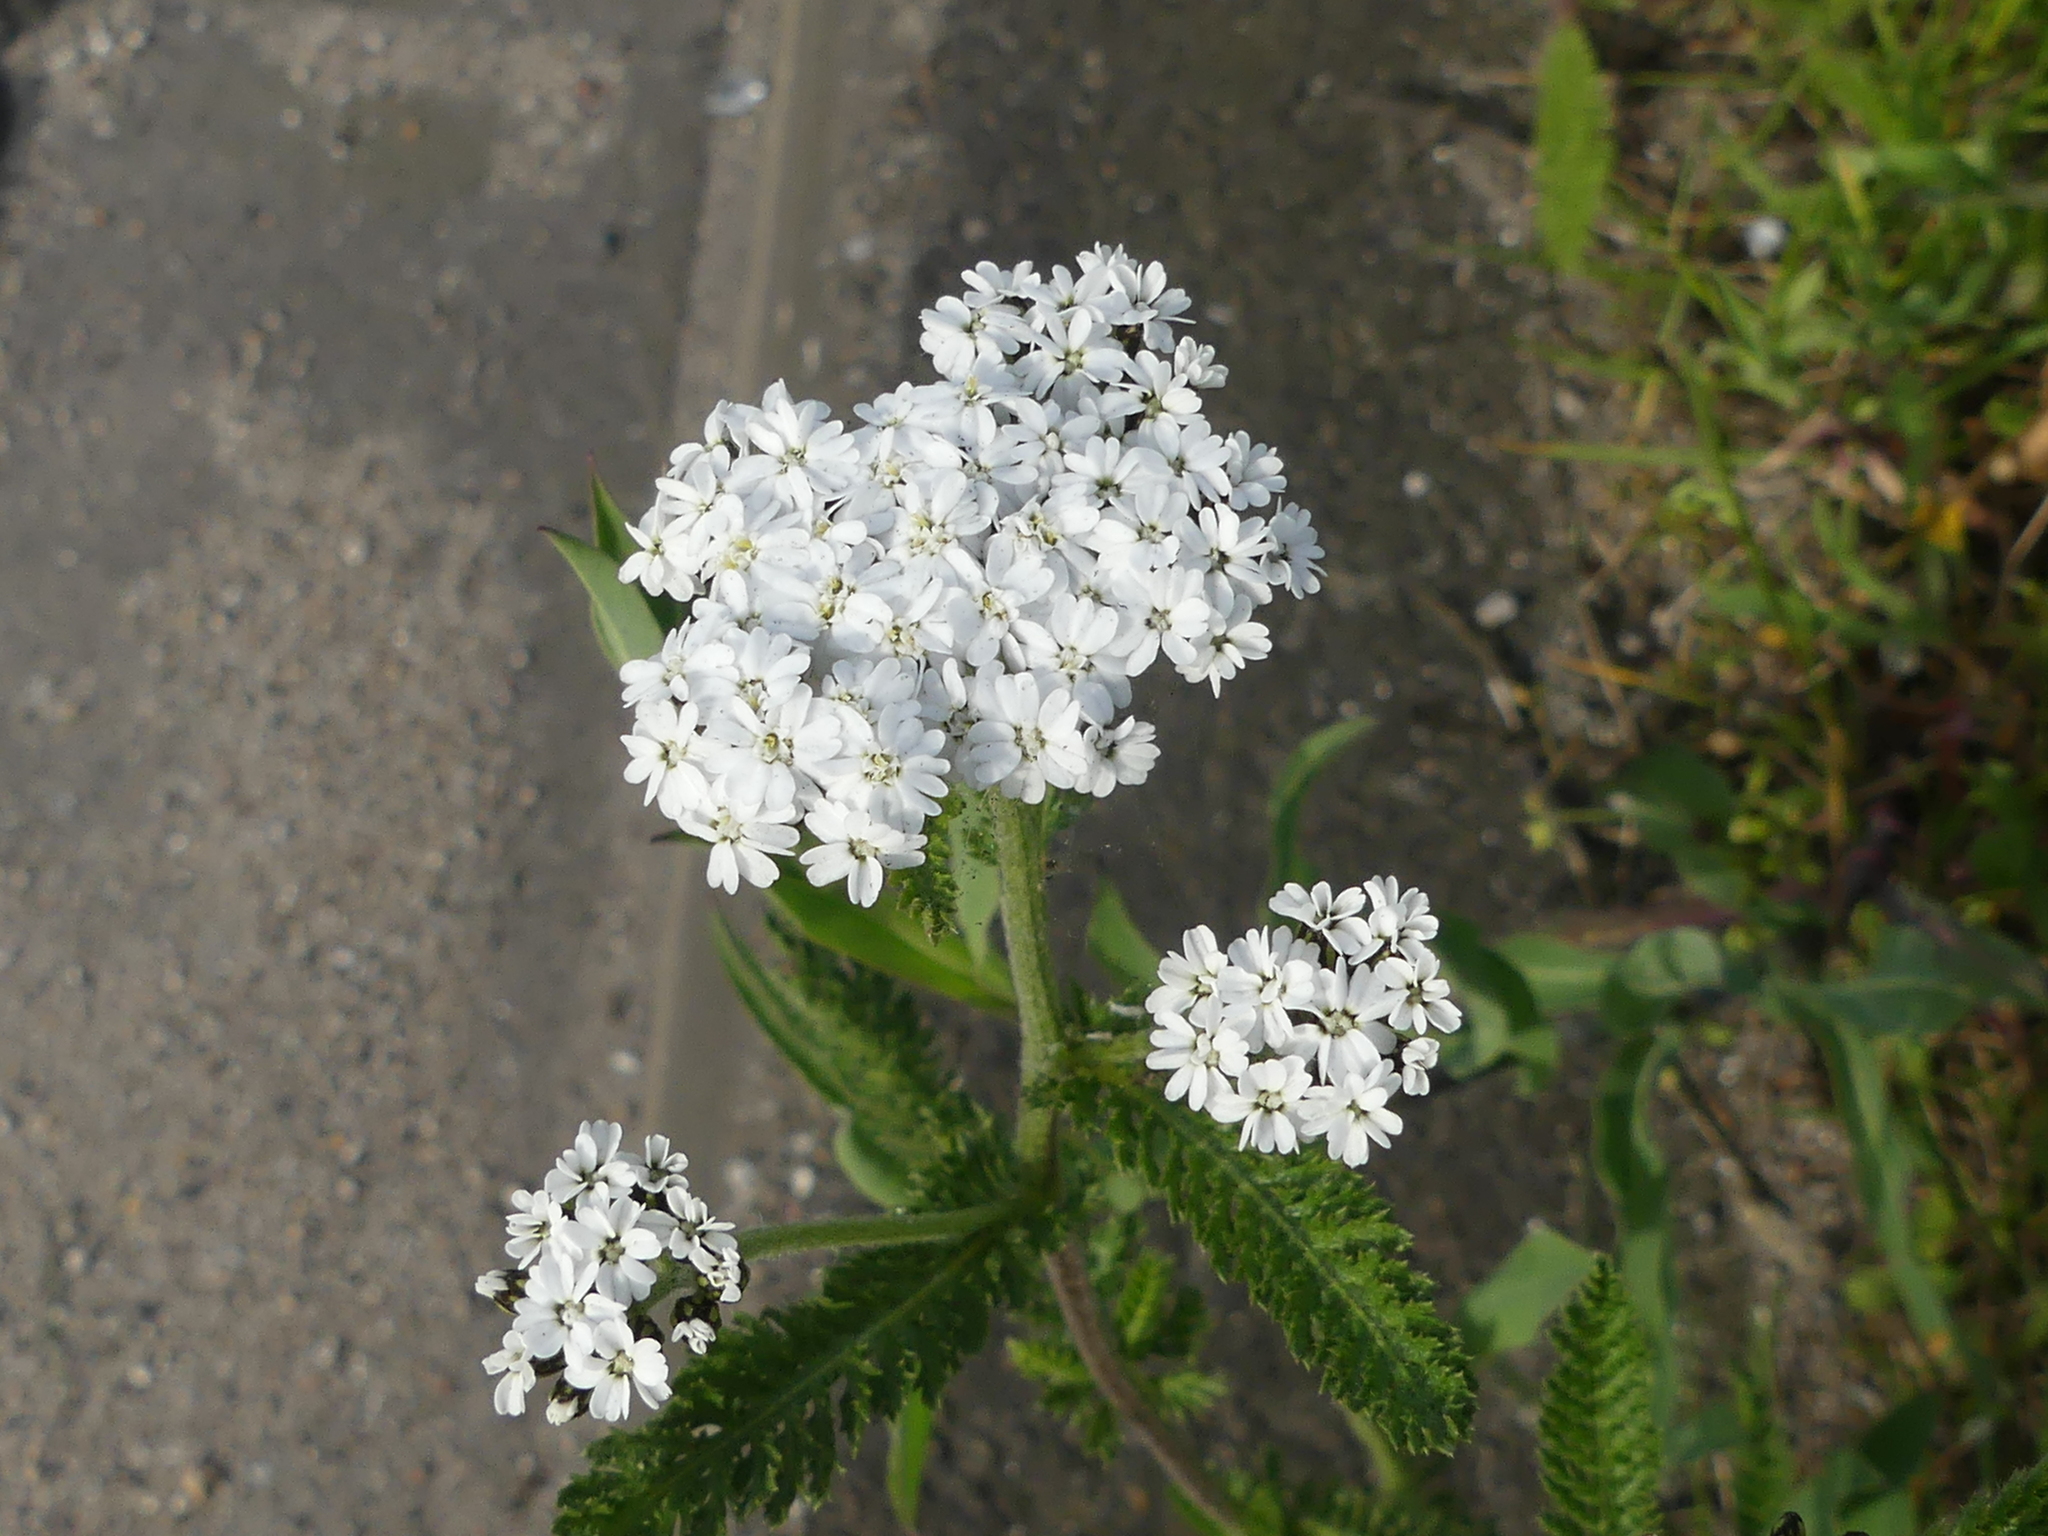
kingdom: Plantae
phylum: Tracheophyta
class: Magnoliopsida
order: Asterales
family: Asteraceae
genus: Achillea
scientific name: Achillea millefolium
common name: Yarrow
